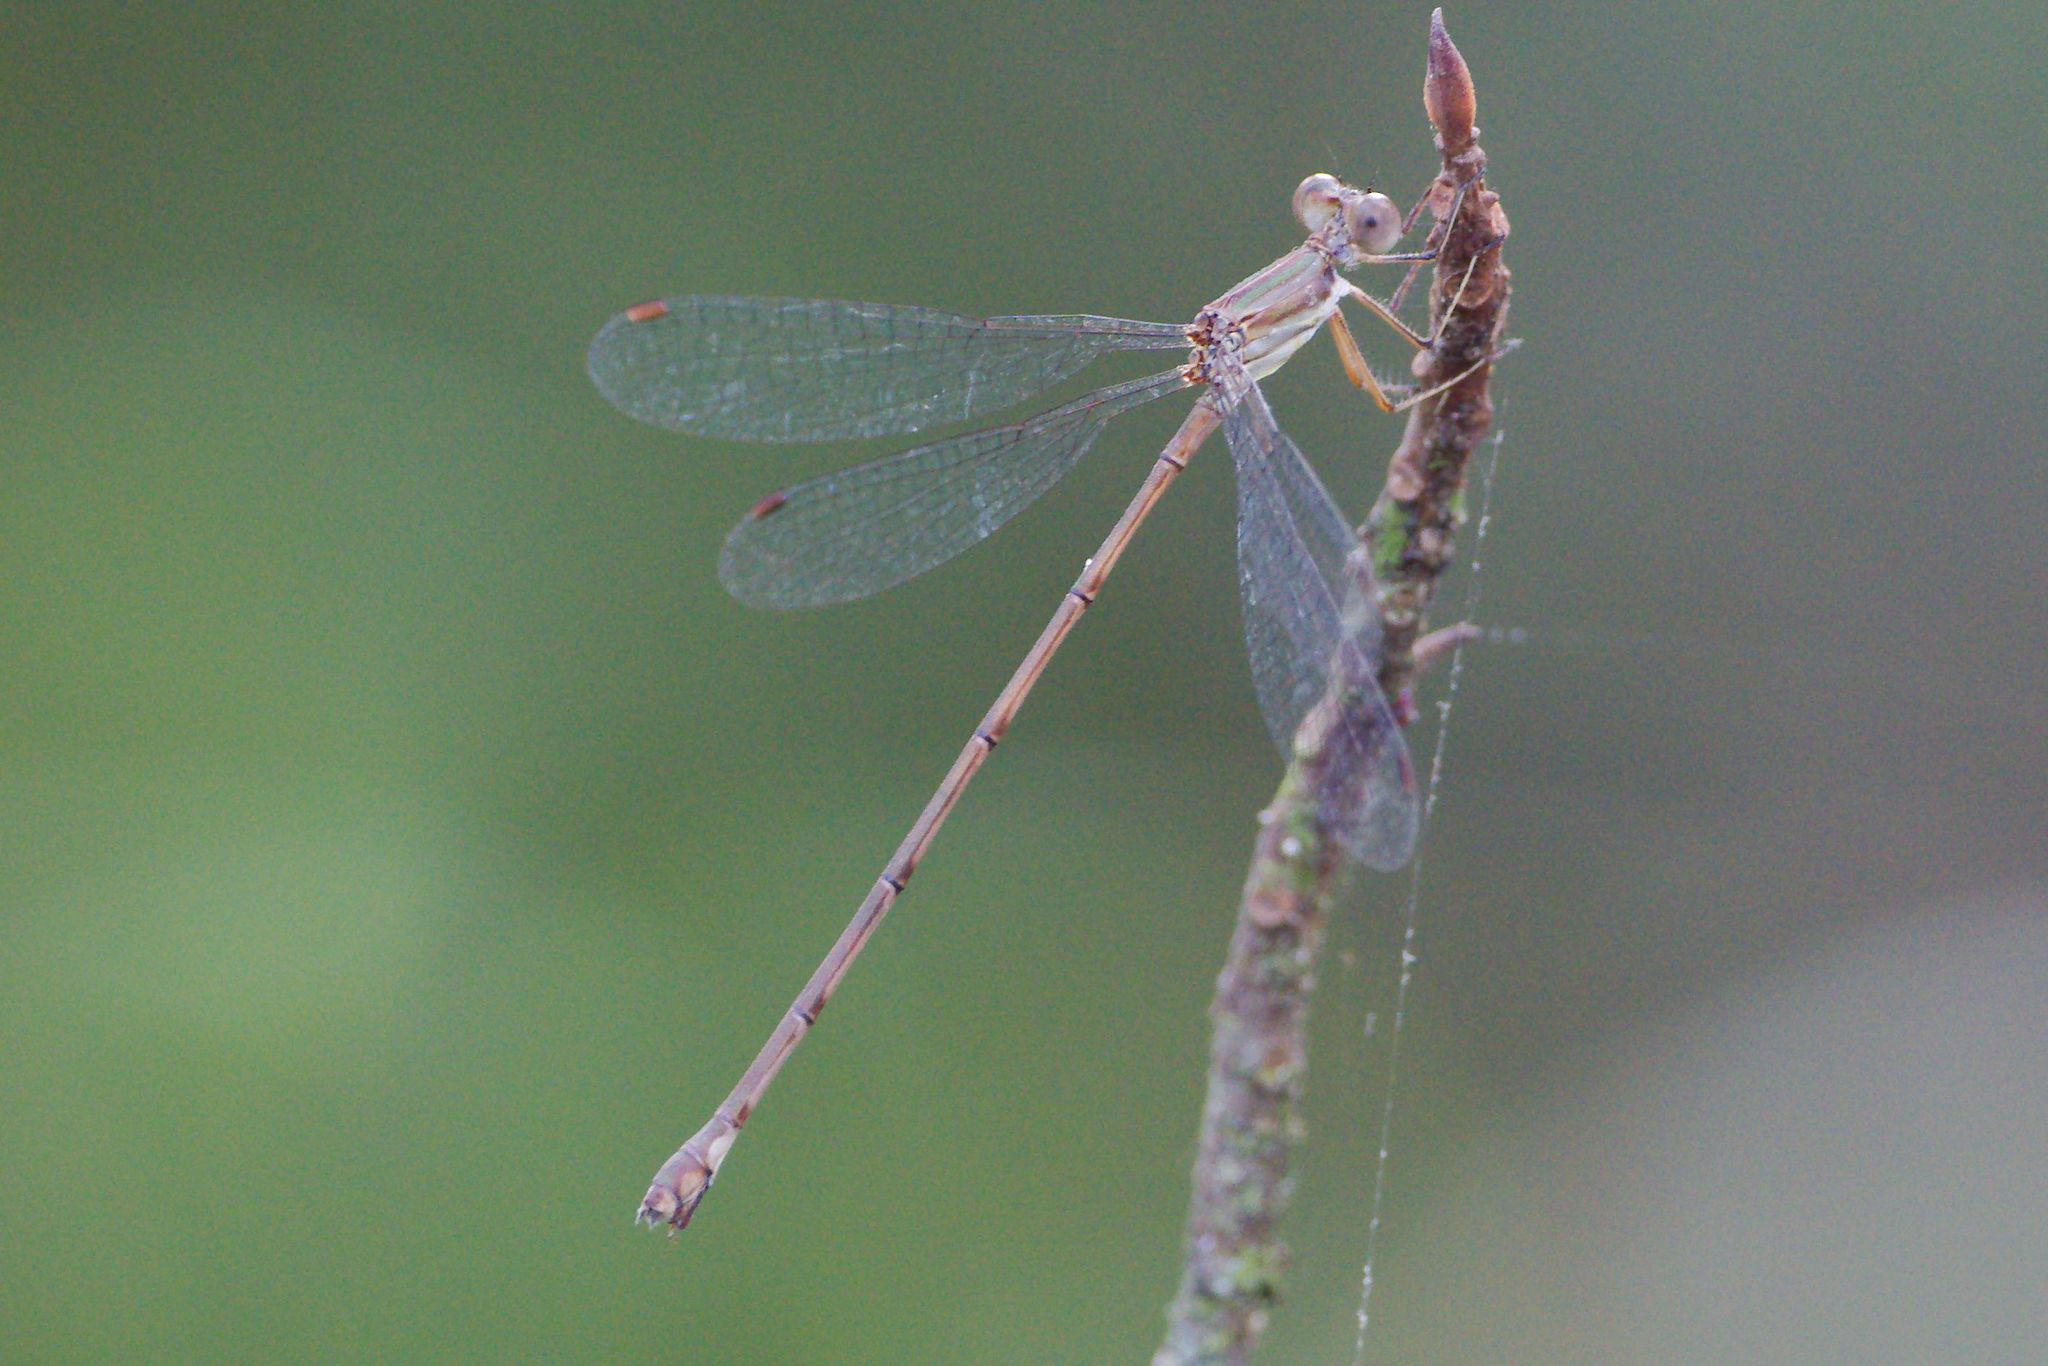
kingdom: Animalia
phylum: Arthropoda
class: Insecta
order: Odonata
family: Lestidae
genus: Lestes
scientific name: Lestes tenuatus
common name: Blue-striped spreadwing
